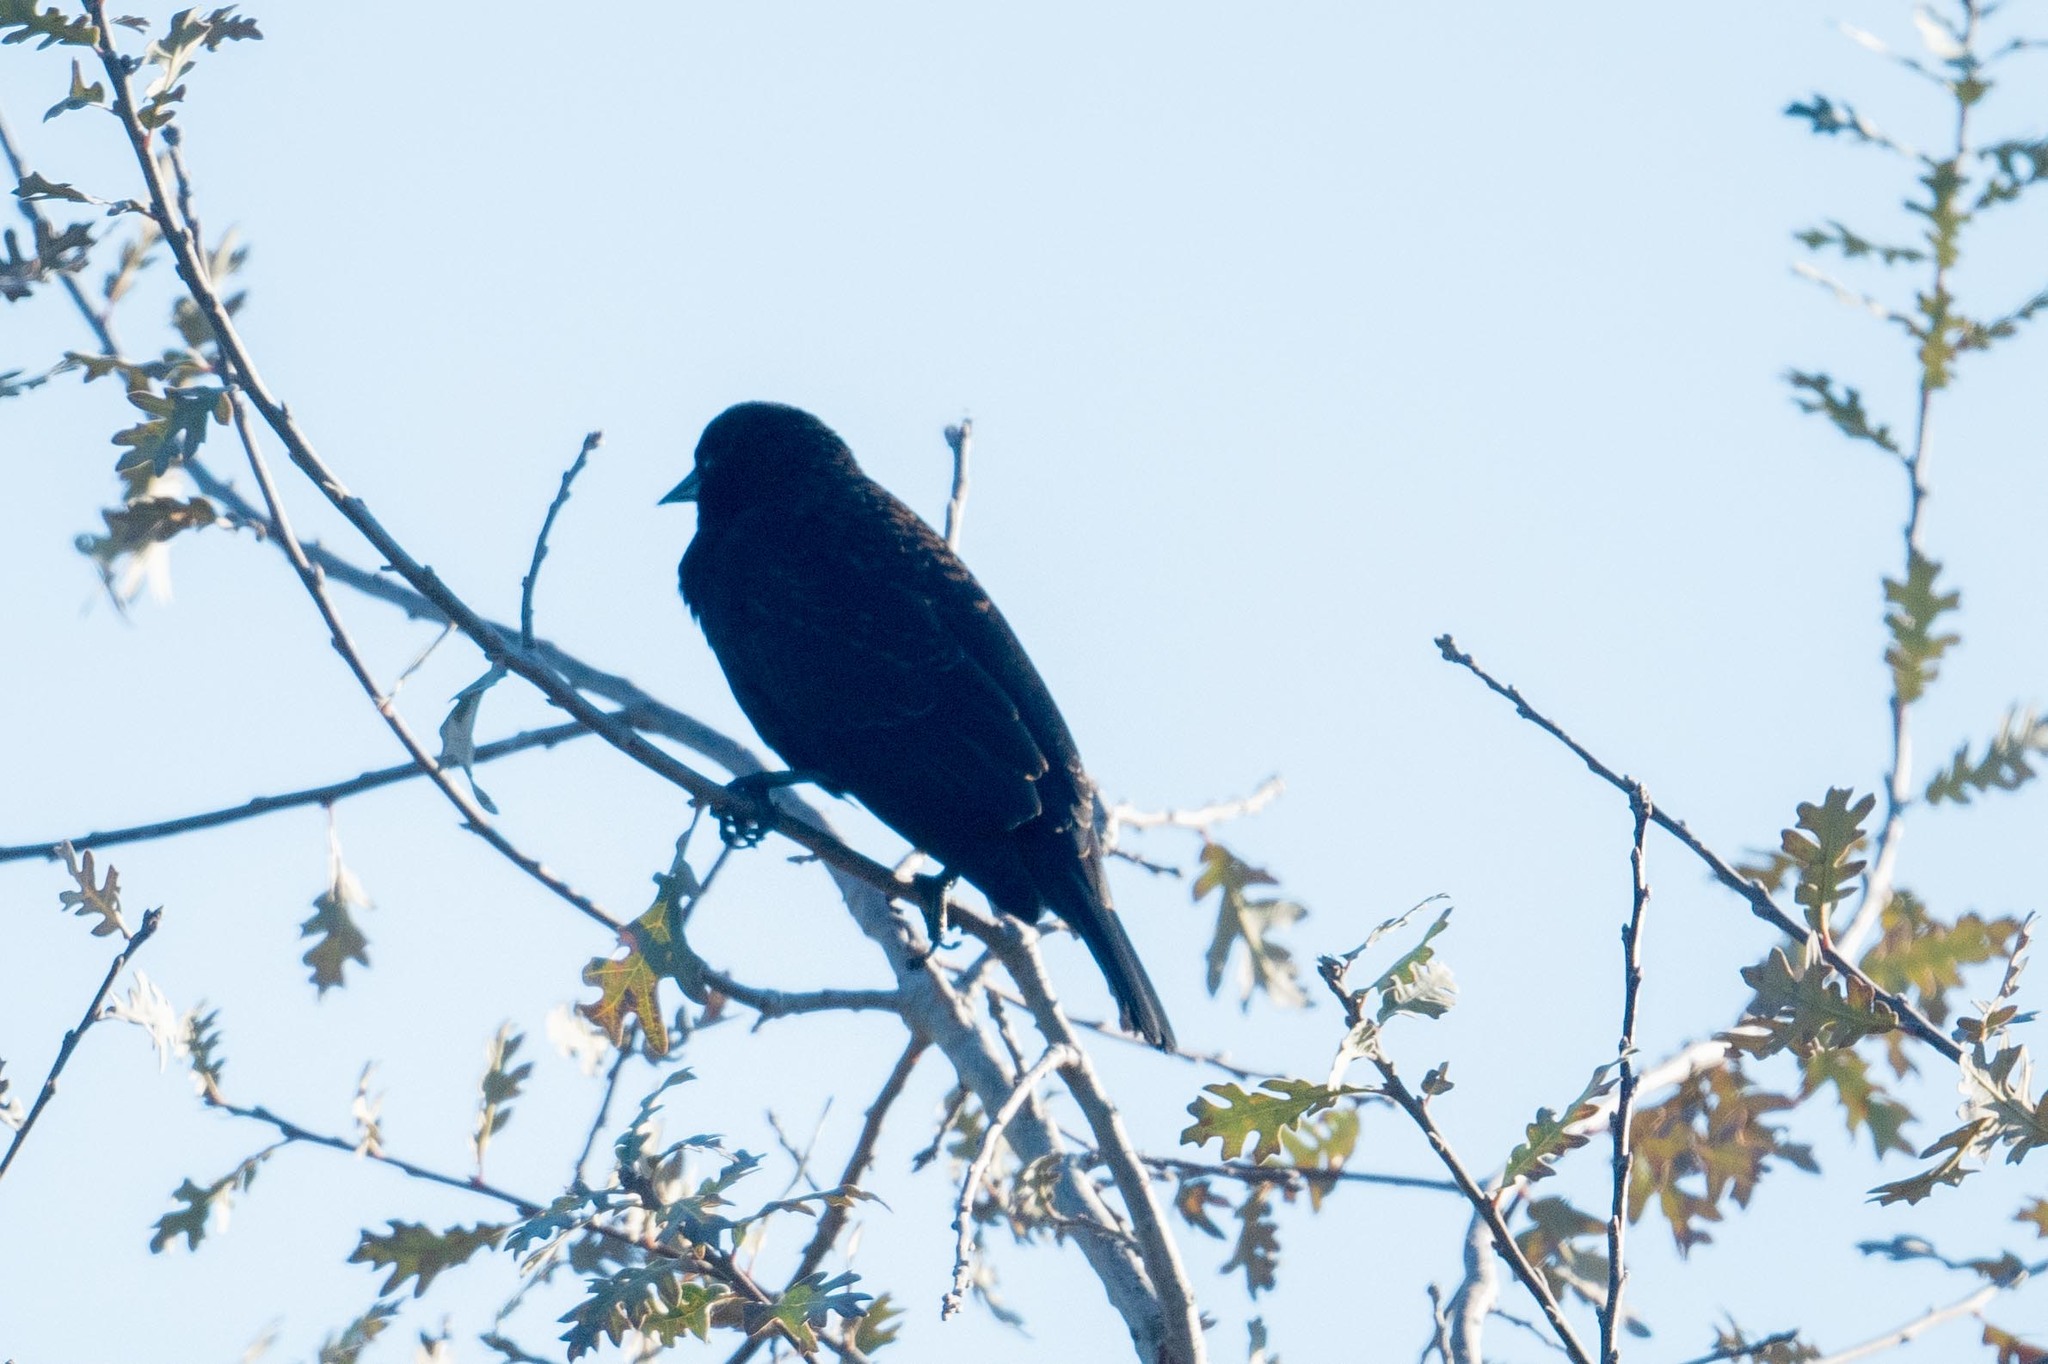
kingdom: Animalia
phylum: Chordata
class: Aves
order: Passeriformes
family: Icteridae
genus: Agelaius
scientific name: Agelaius phoeniceus
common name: Red-winged blackbird
